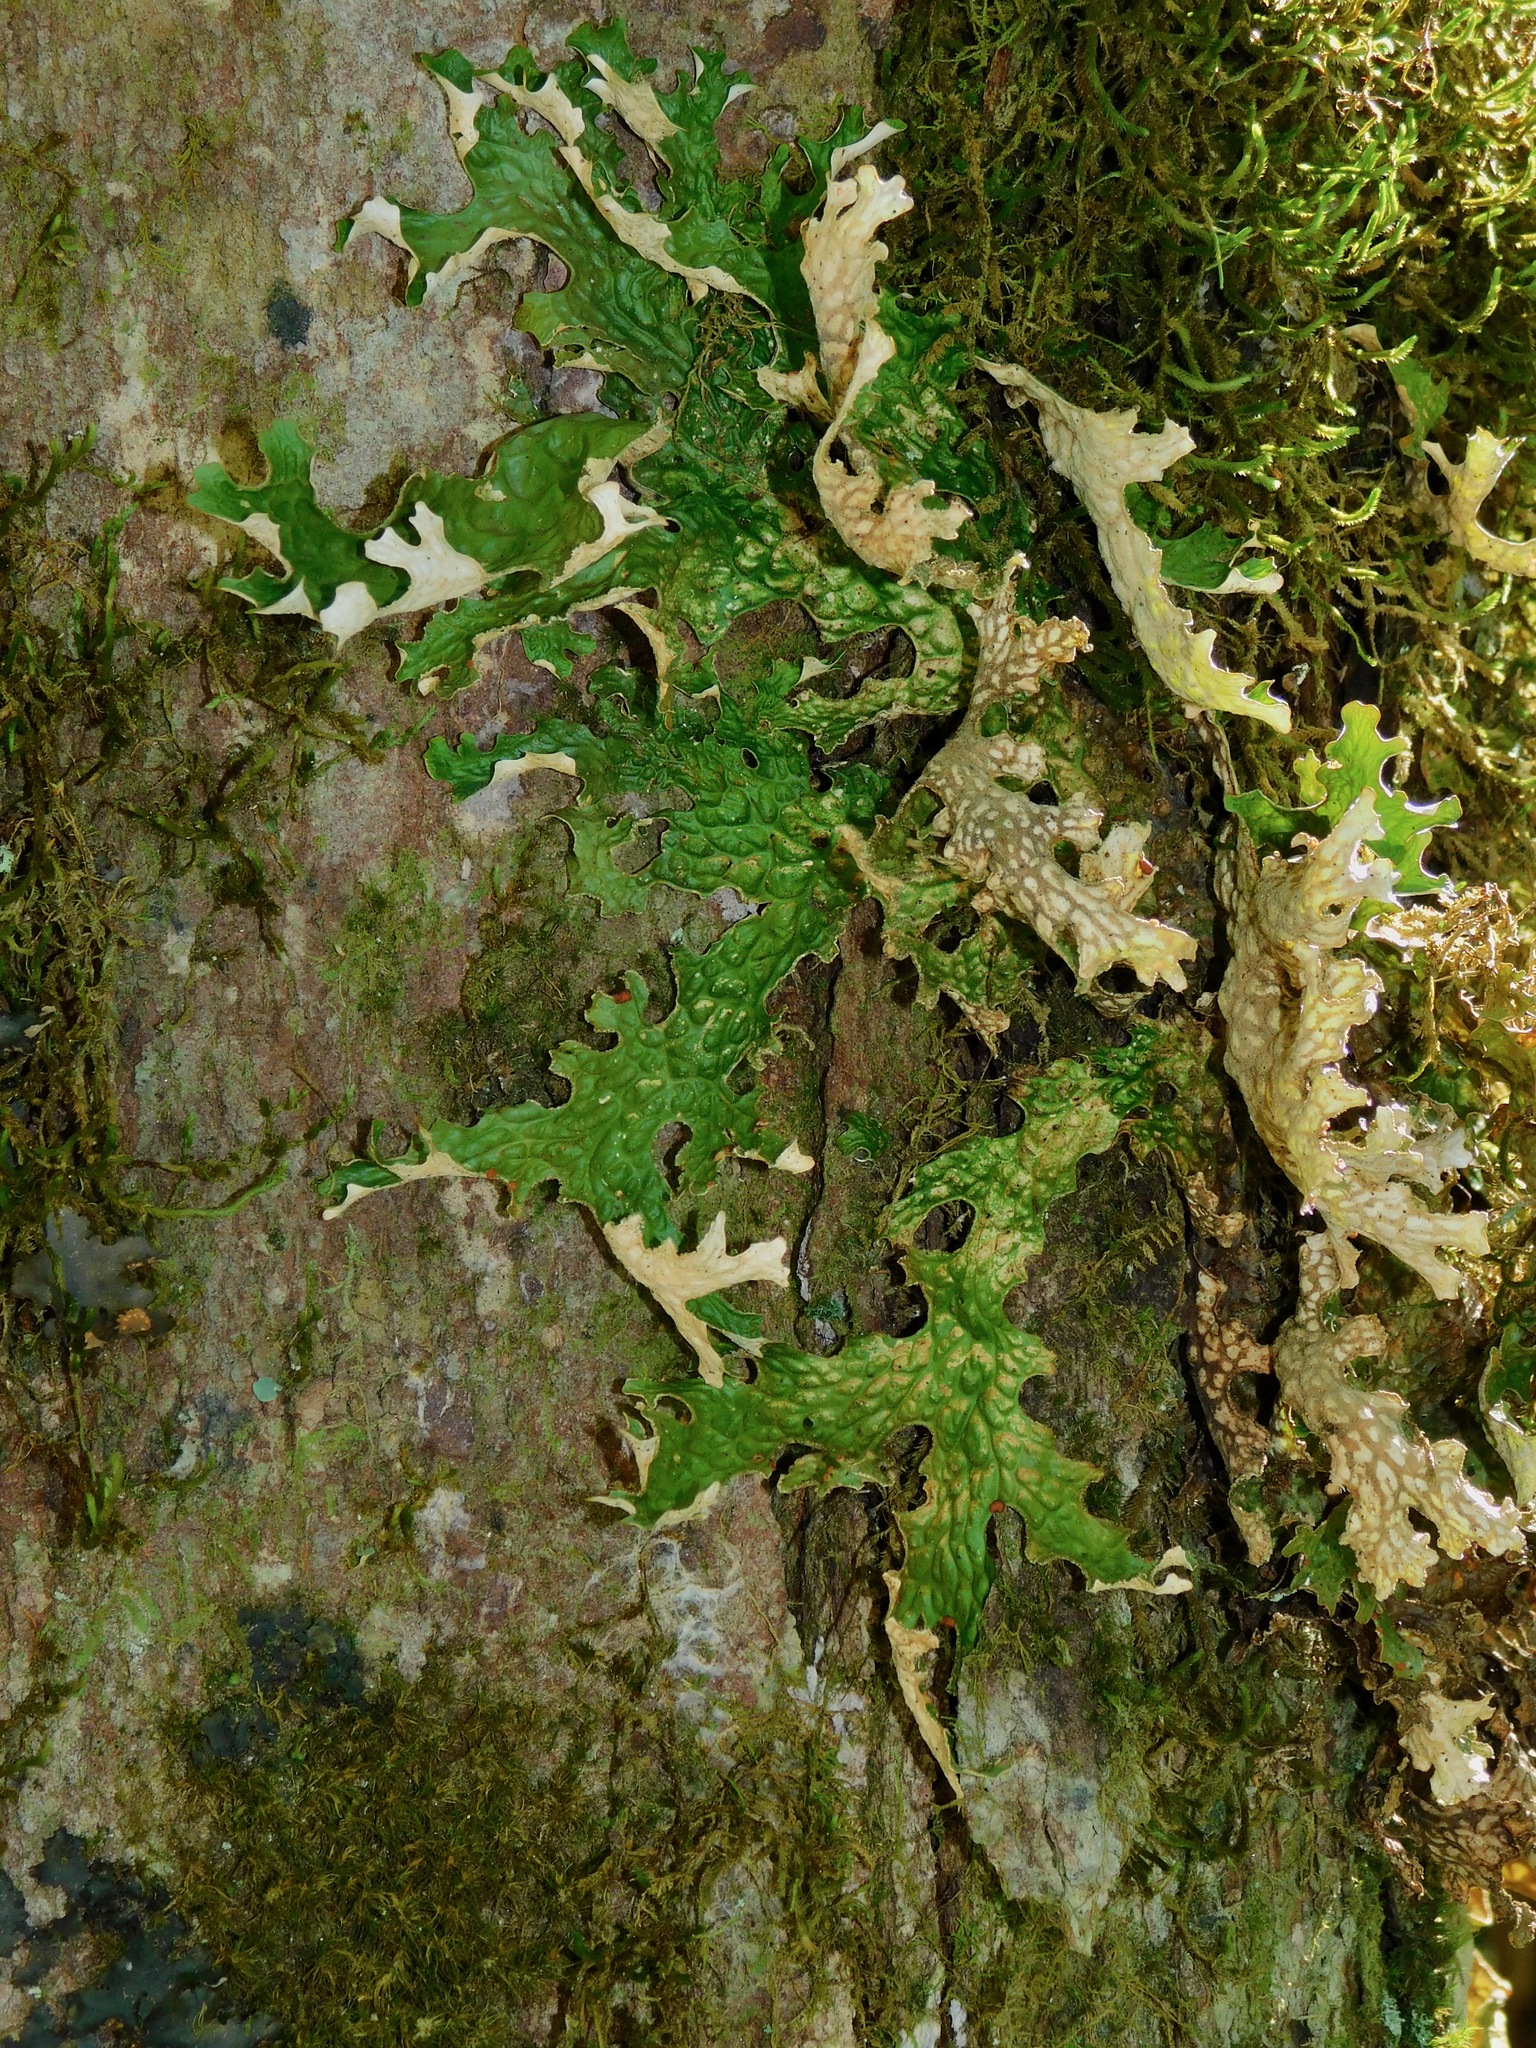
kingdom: Fungi
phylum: Ascomycota
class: Lecanoromycetes
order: Peltigerales
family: Lobariaceae
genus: Lobaria
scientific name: Lobaria pulmonaria
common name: Lungwort
